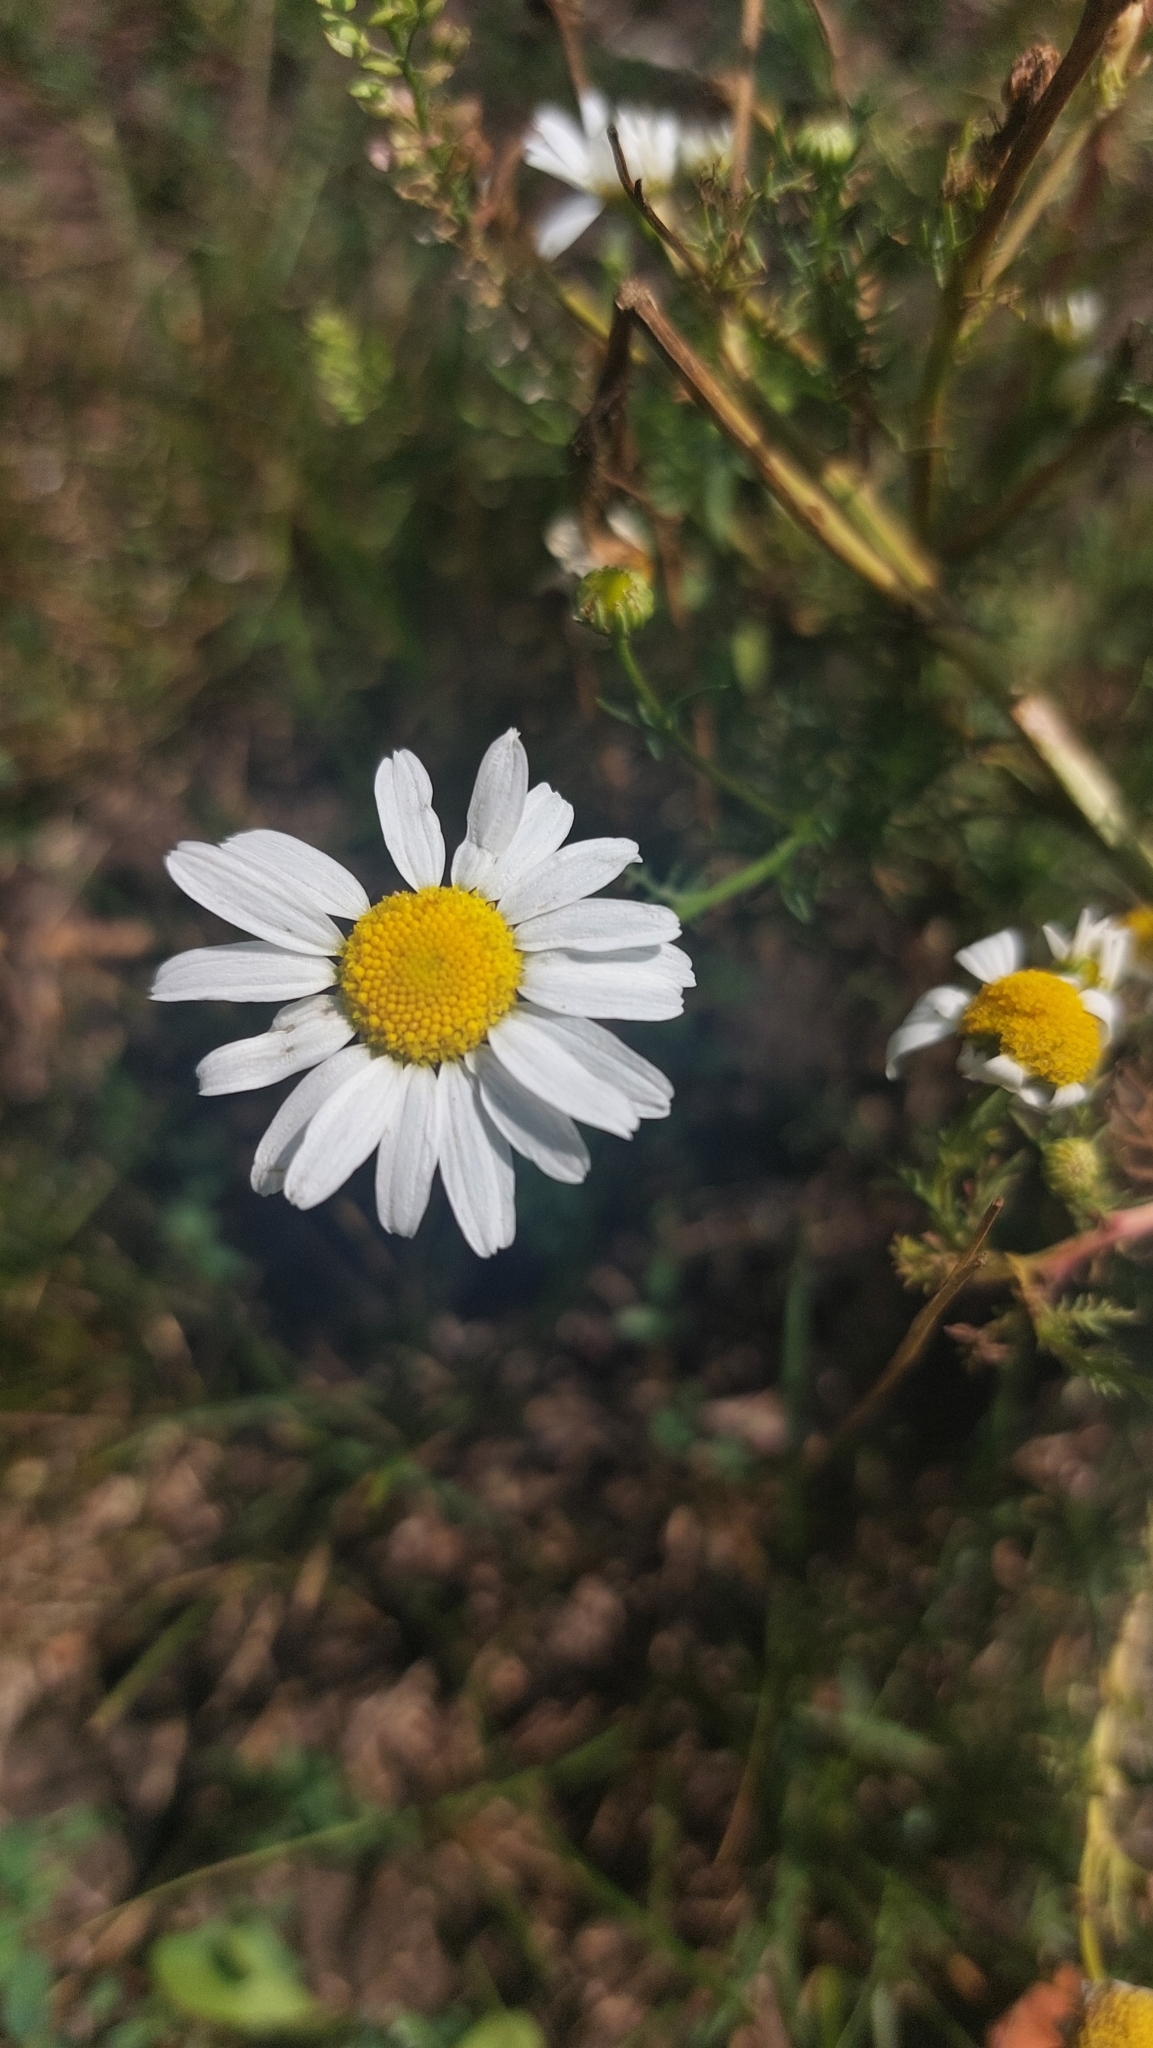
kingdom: Plantae
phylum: Tracheophyta
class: Magnoliopsida
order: Asterales
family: Asteraceae
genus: Tripleurospermum
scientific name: Tripleurospermum inodorum
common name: Scentless mayweed
